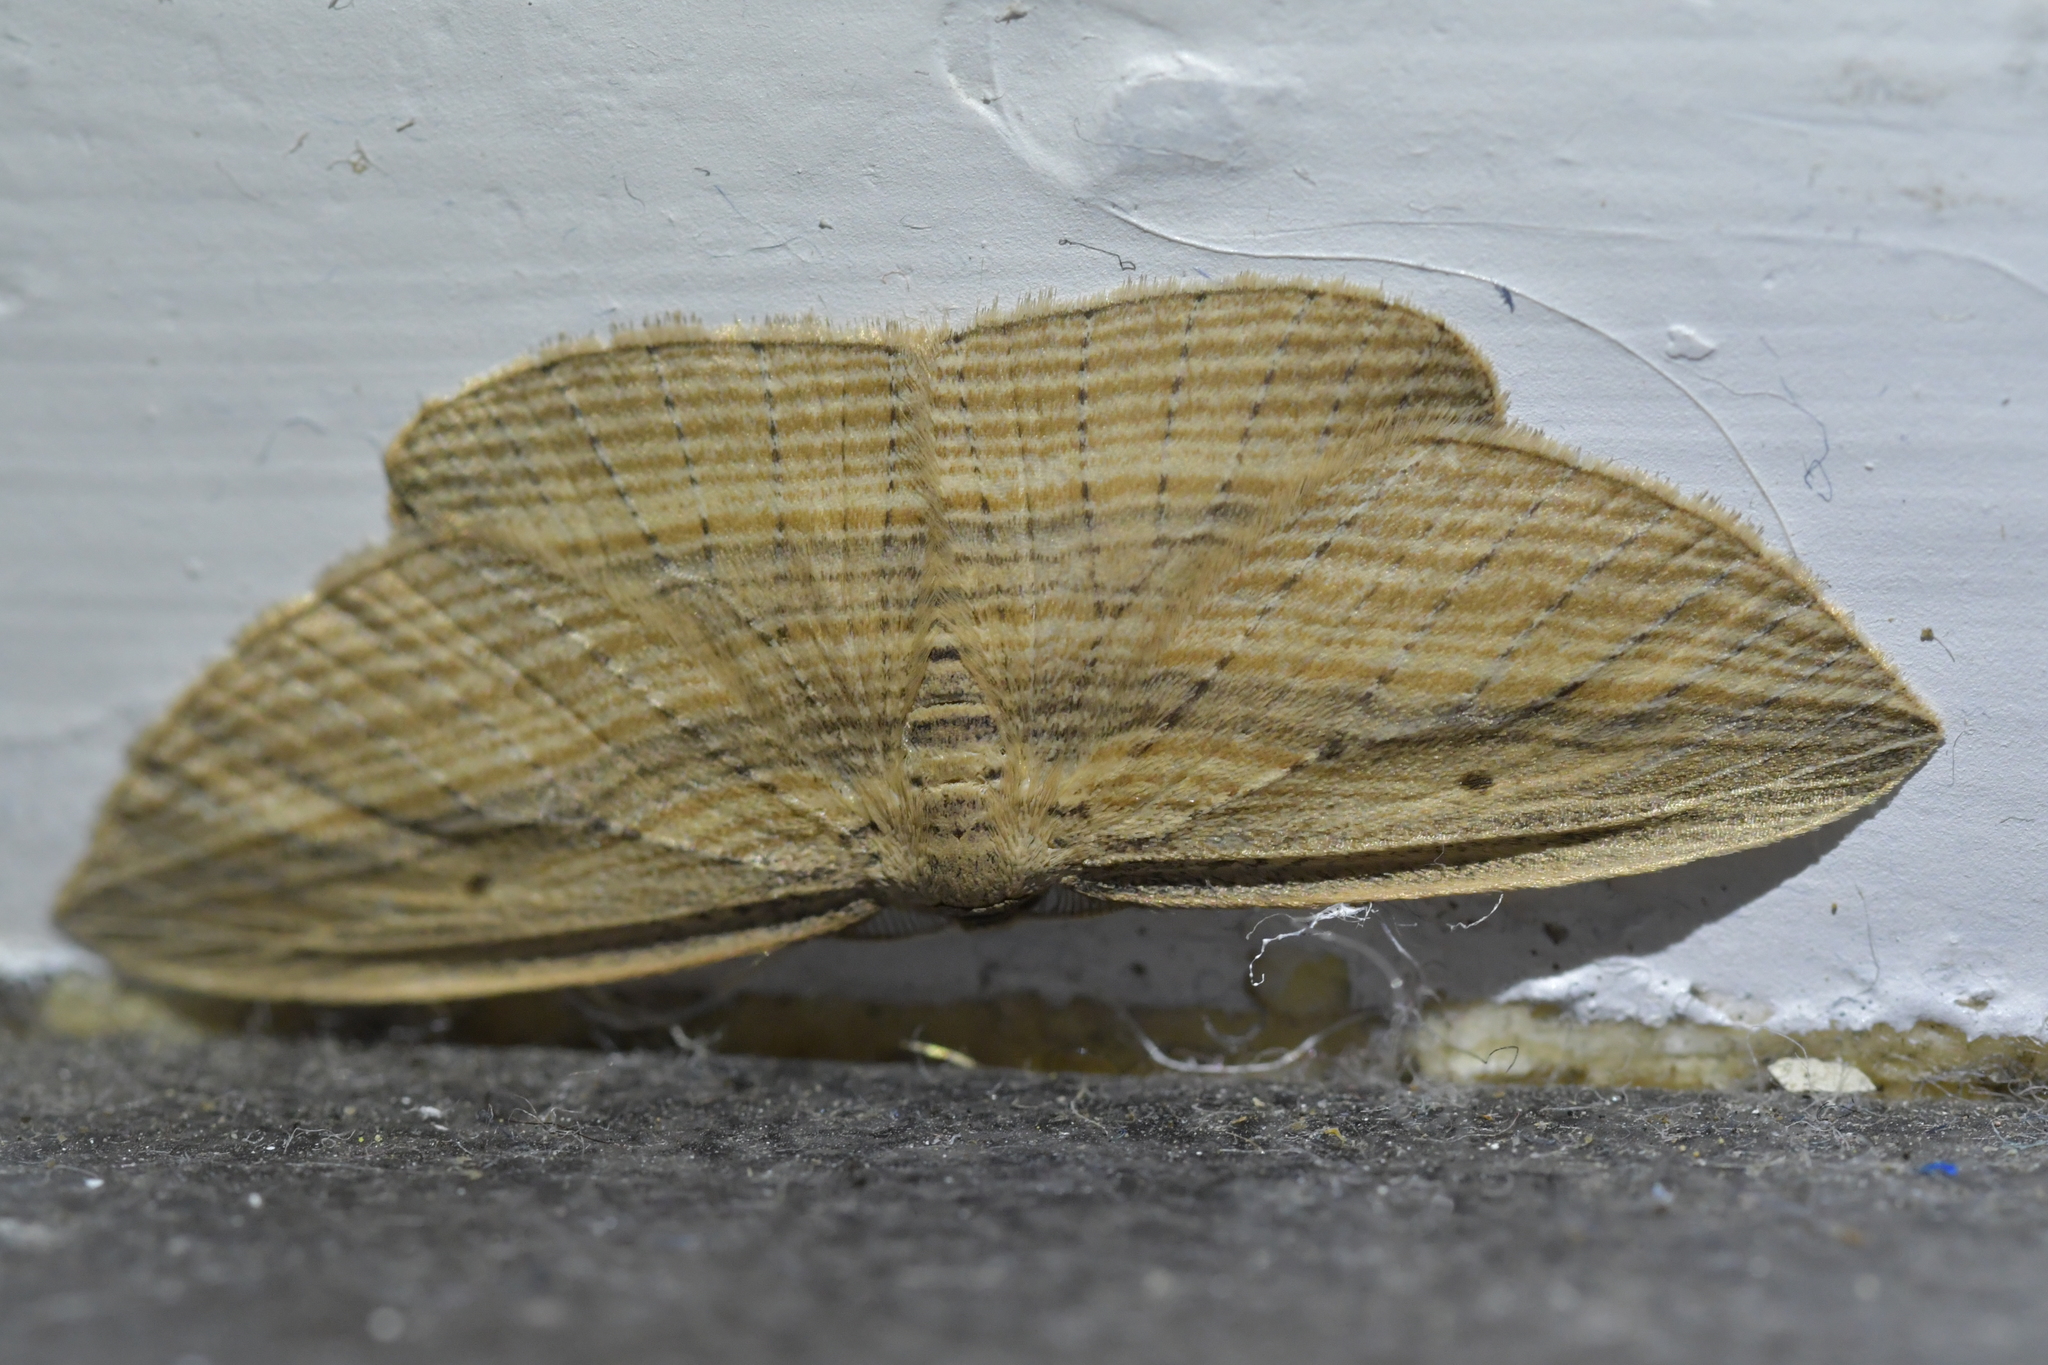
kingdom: Animalia
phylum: Arthropoda
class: Insecta
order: Lepidoptera
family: Geometridae
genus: Epiphryne
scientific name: Epiphryne verriculata
